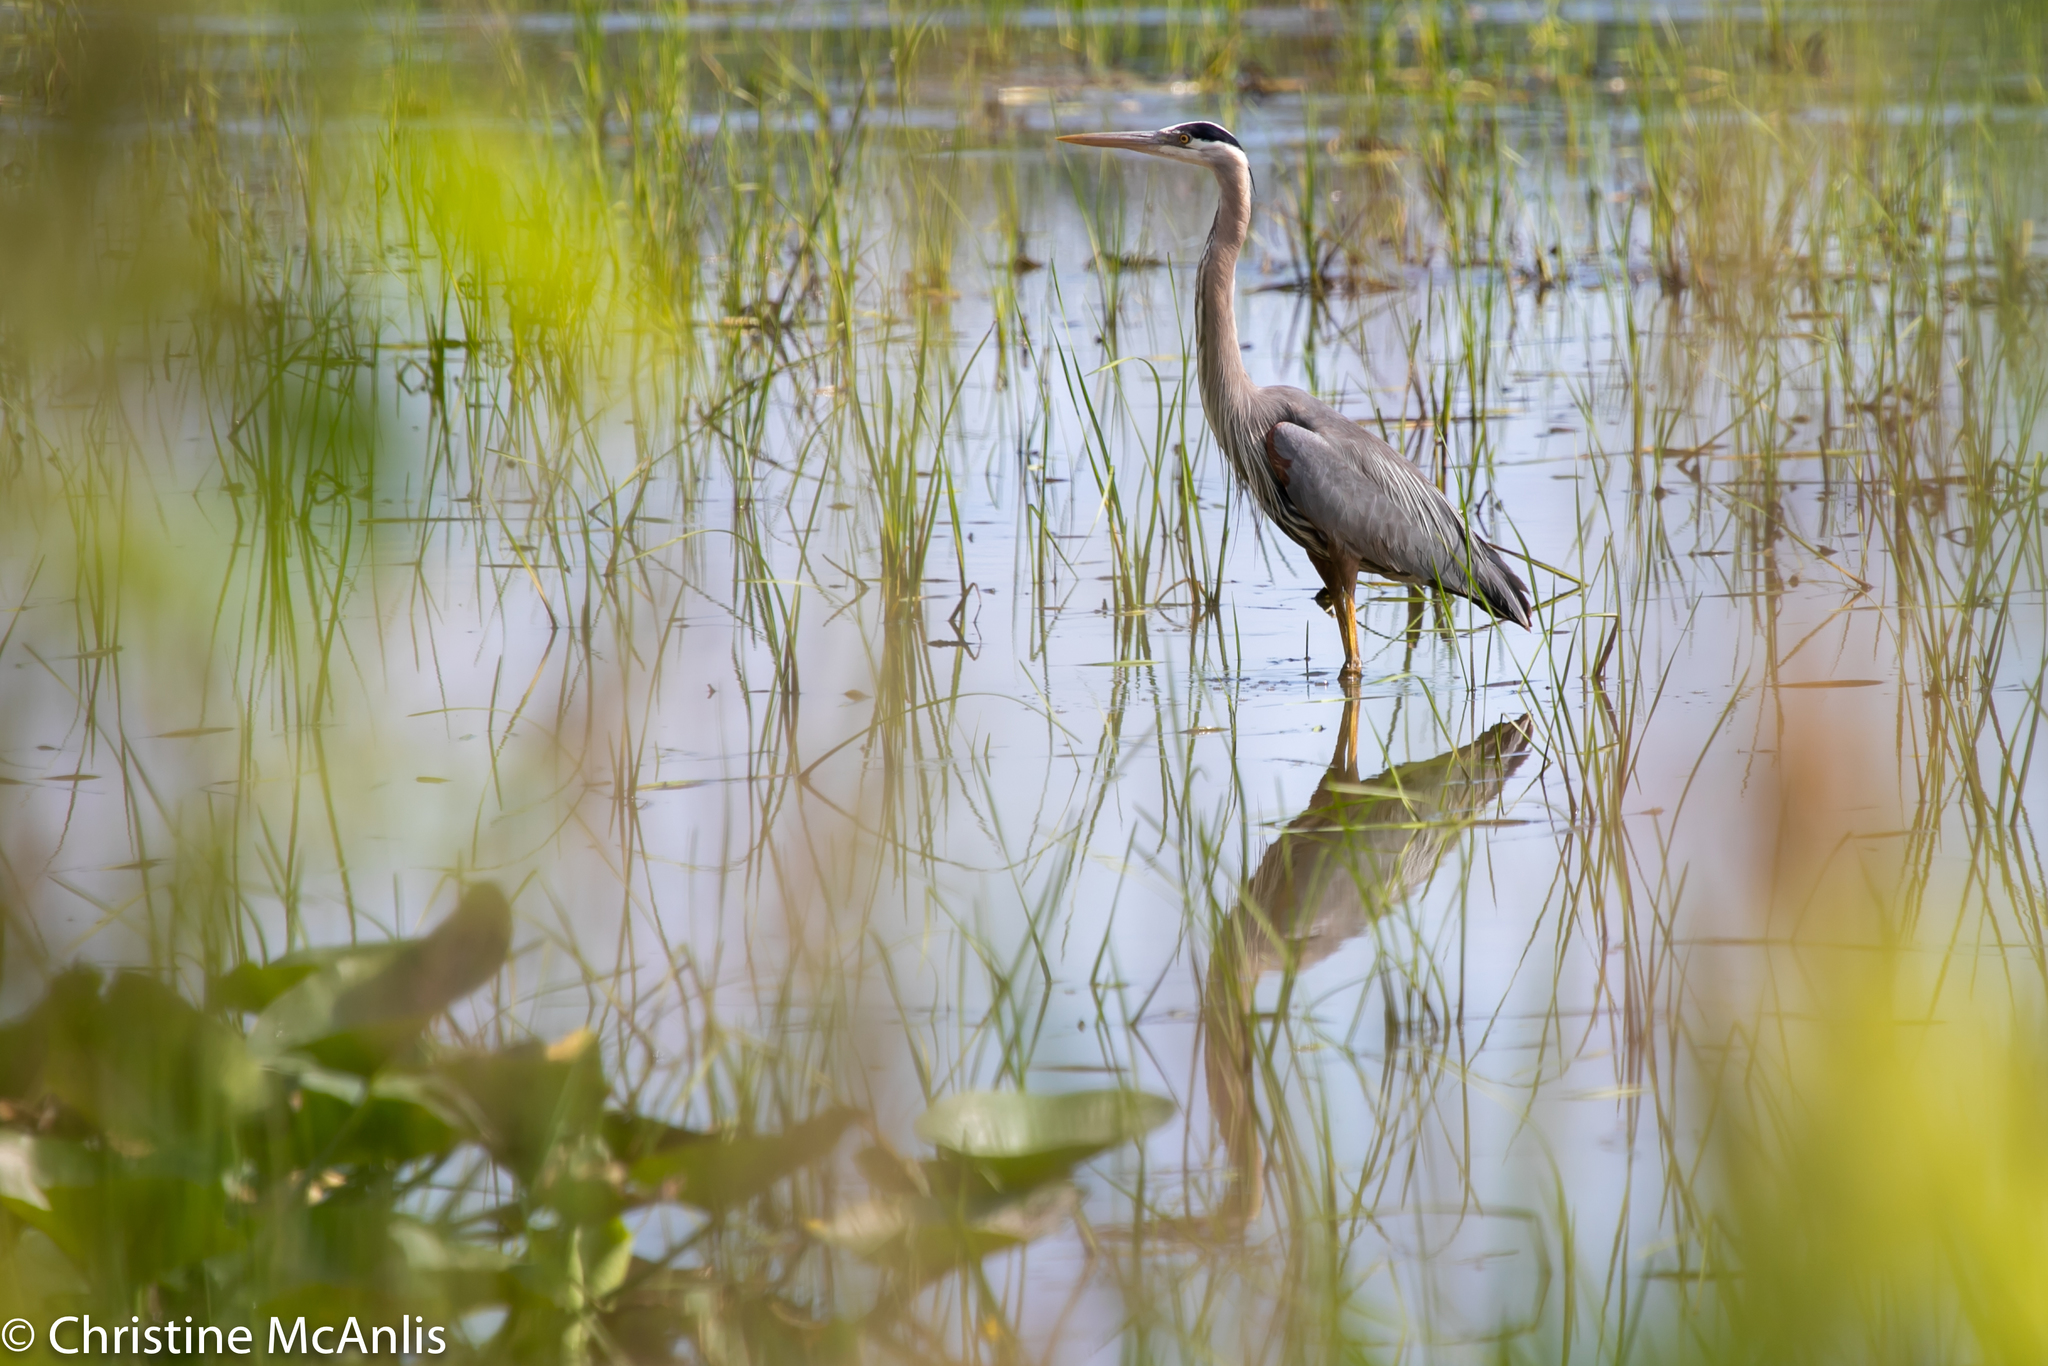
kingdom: Animalia
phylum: Chordata
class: Aves
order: Pelecaniformes
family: Ardeidae
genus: Ardea
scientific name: Ardea herodias
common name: Great blue heron
